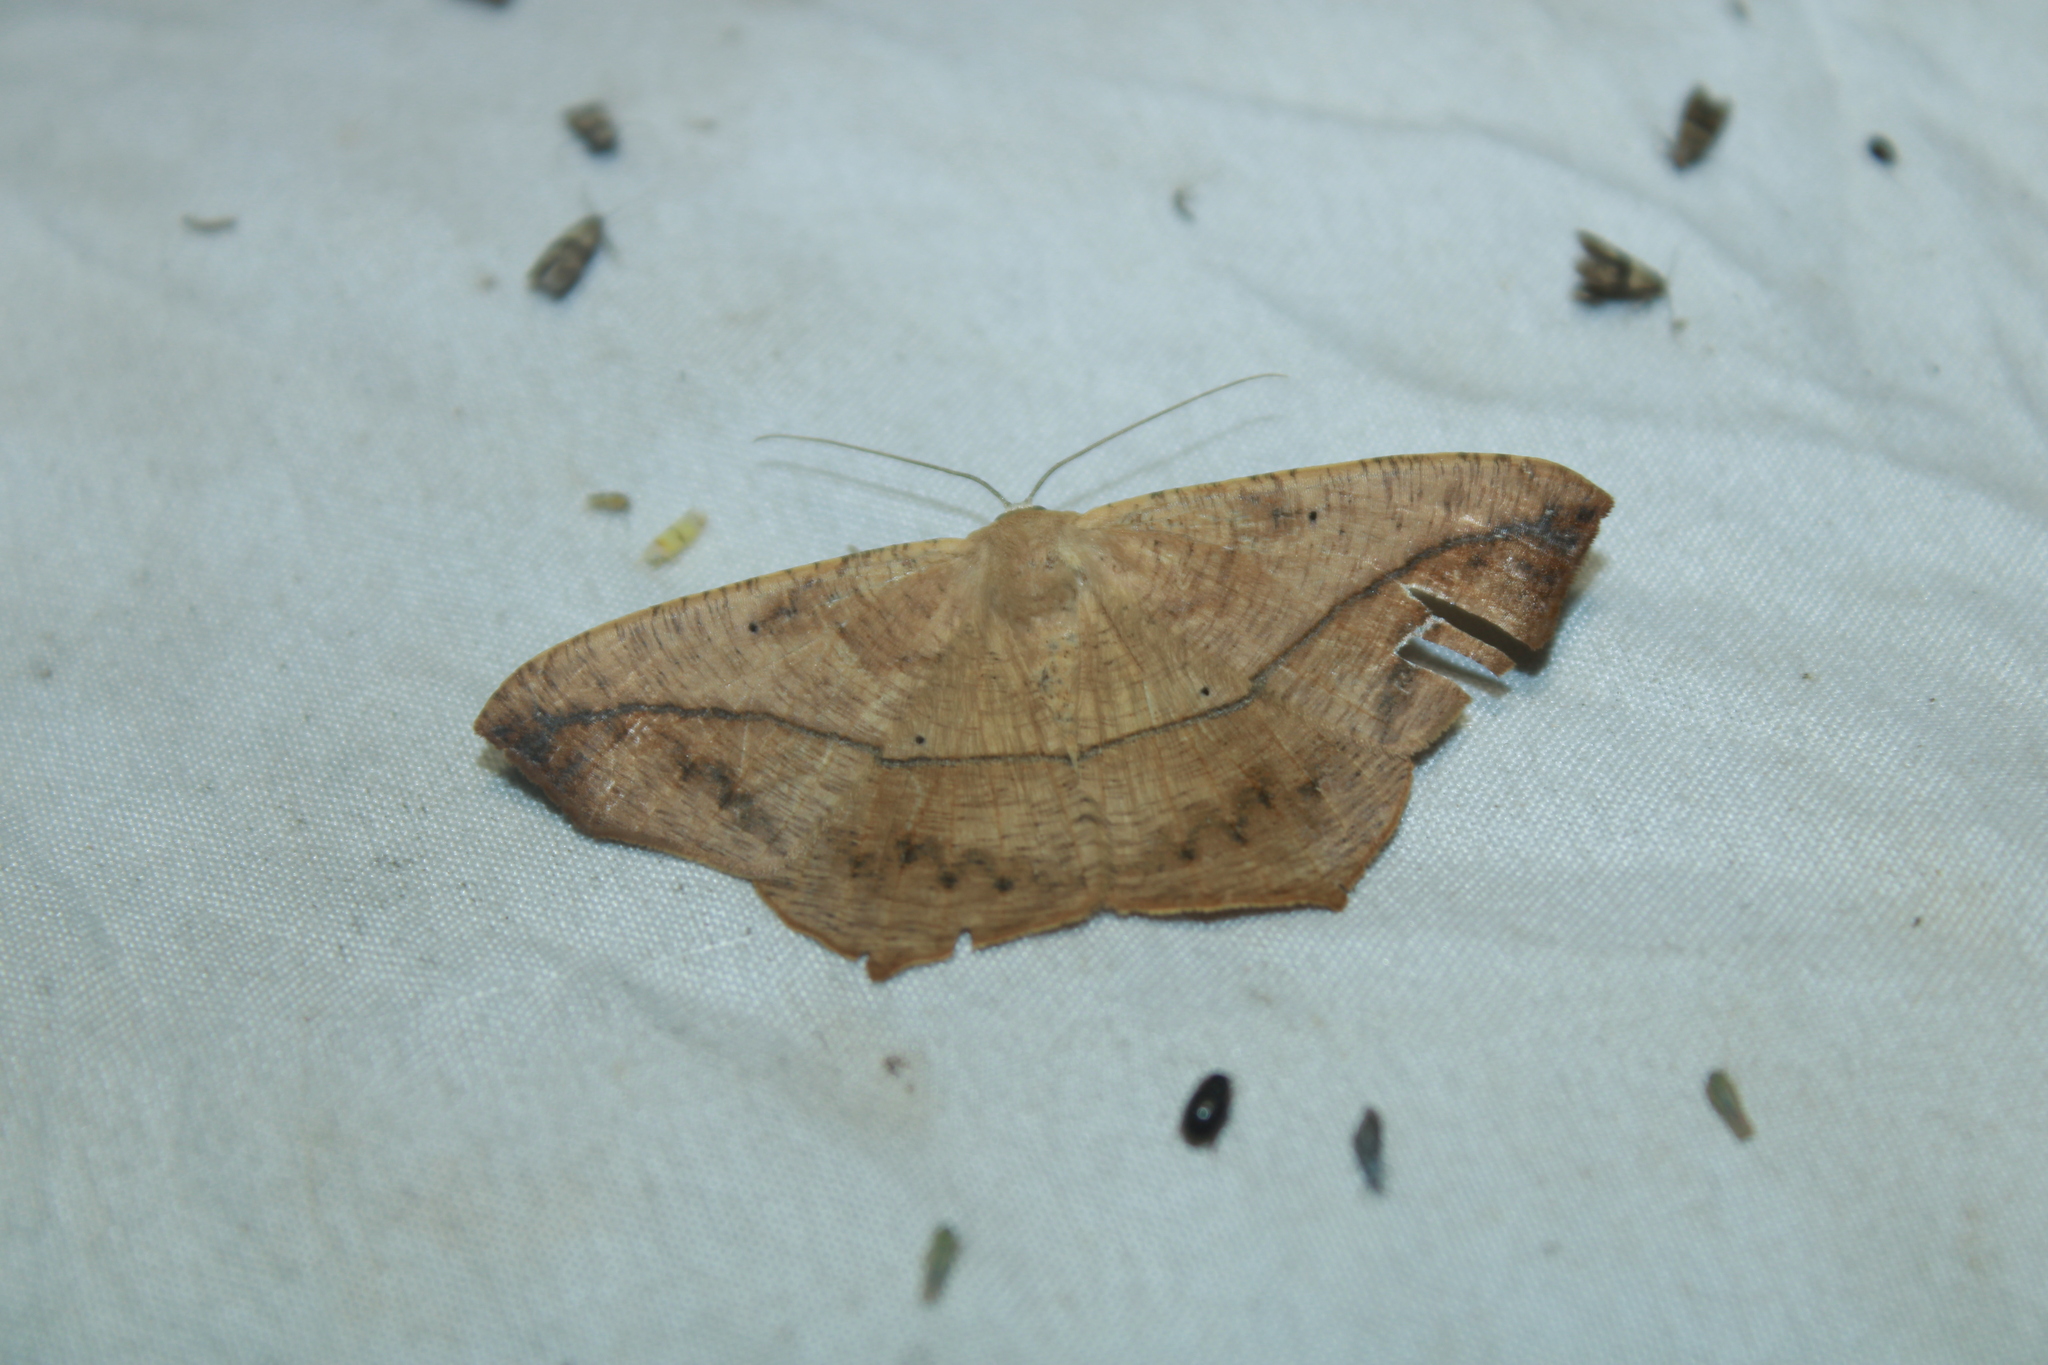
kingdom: Animalia
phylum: Arthropoda
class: Insecta
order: Lepidoptera
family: Geometridae
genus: Prochoerodes
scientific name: Prochoerodes lineola
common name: Large maple spanworm
